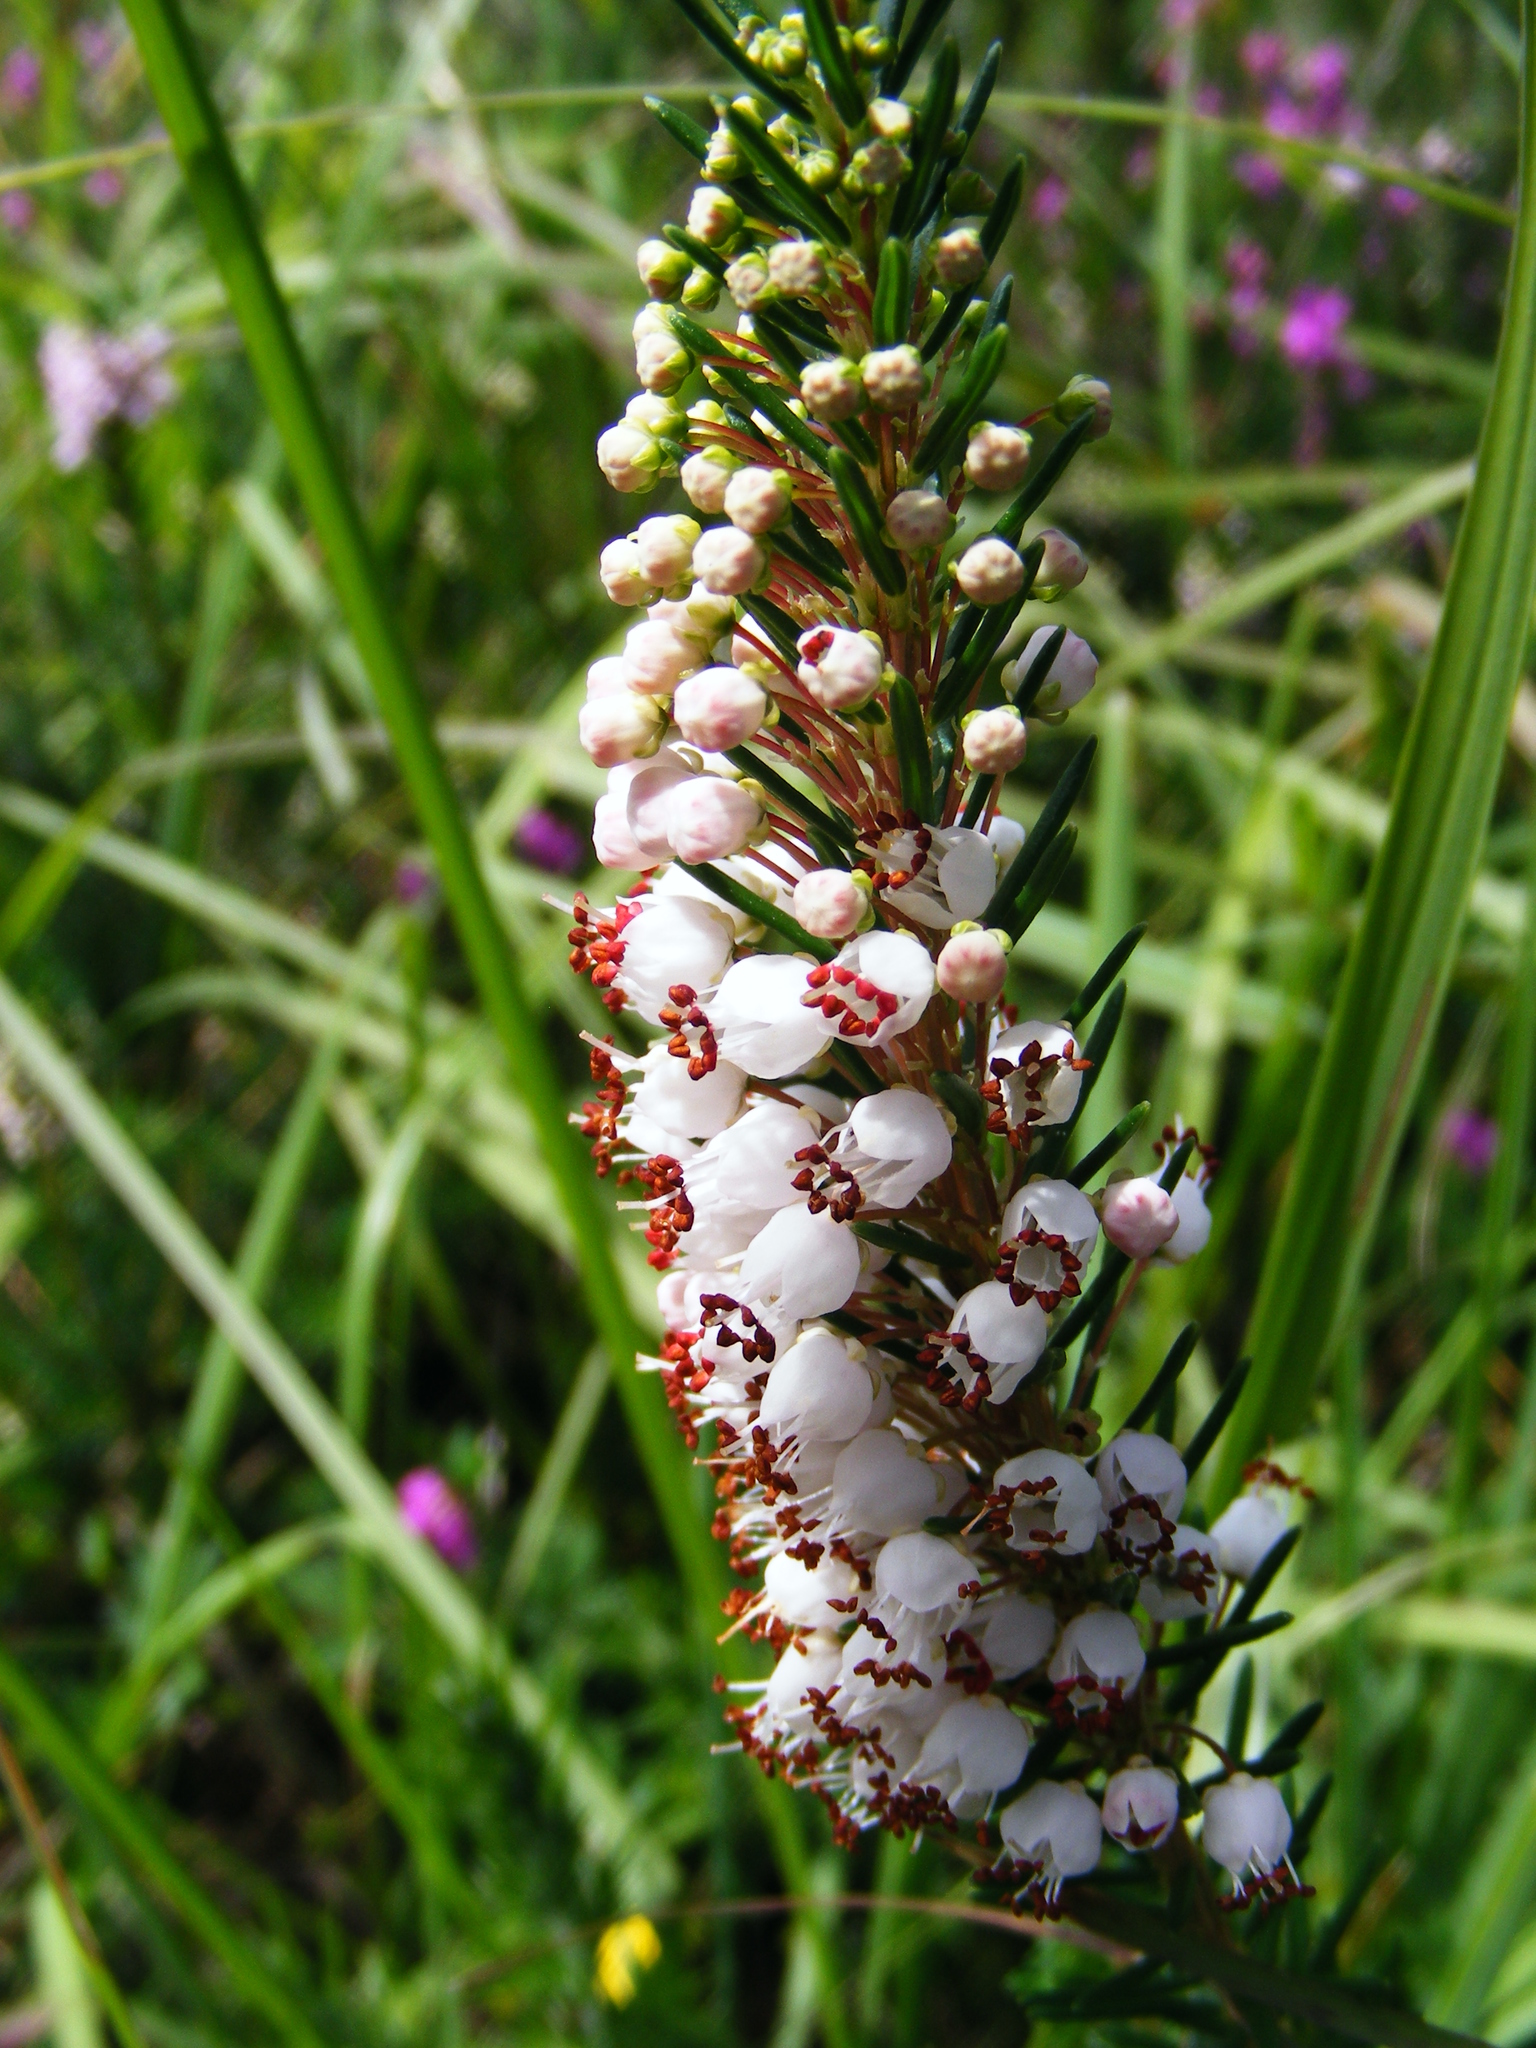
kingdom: Plantae
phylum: Tracheophyta
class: Magnoliopsida
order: Ericales
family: Ericaceae
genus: Erica
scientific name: Erica vagans
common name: Cornish heath
